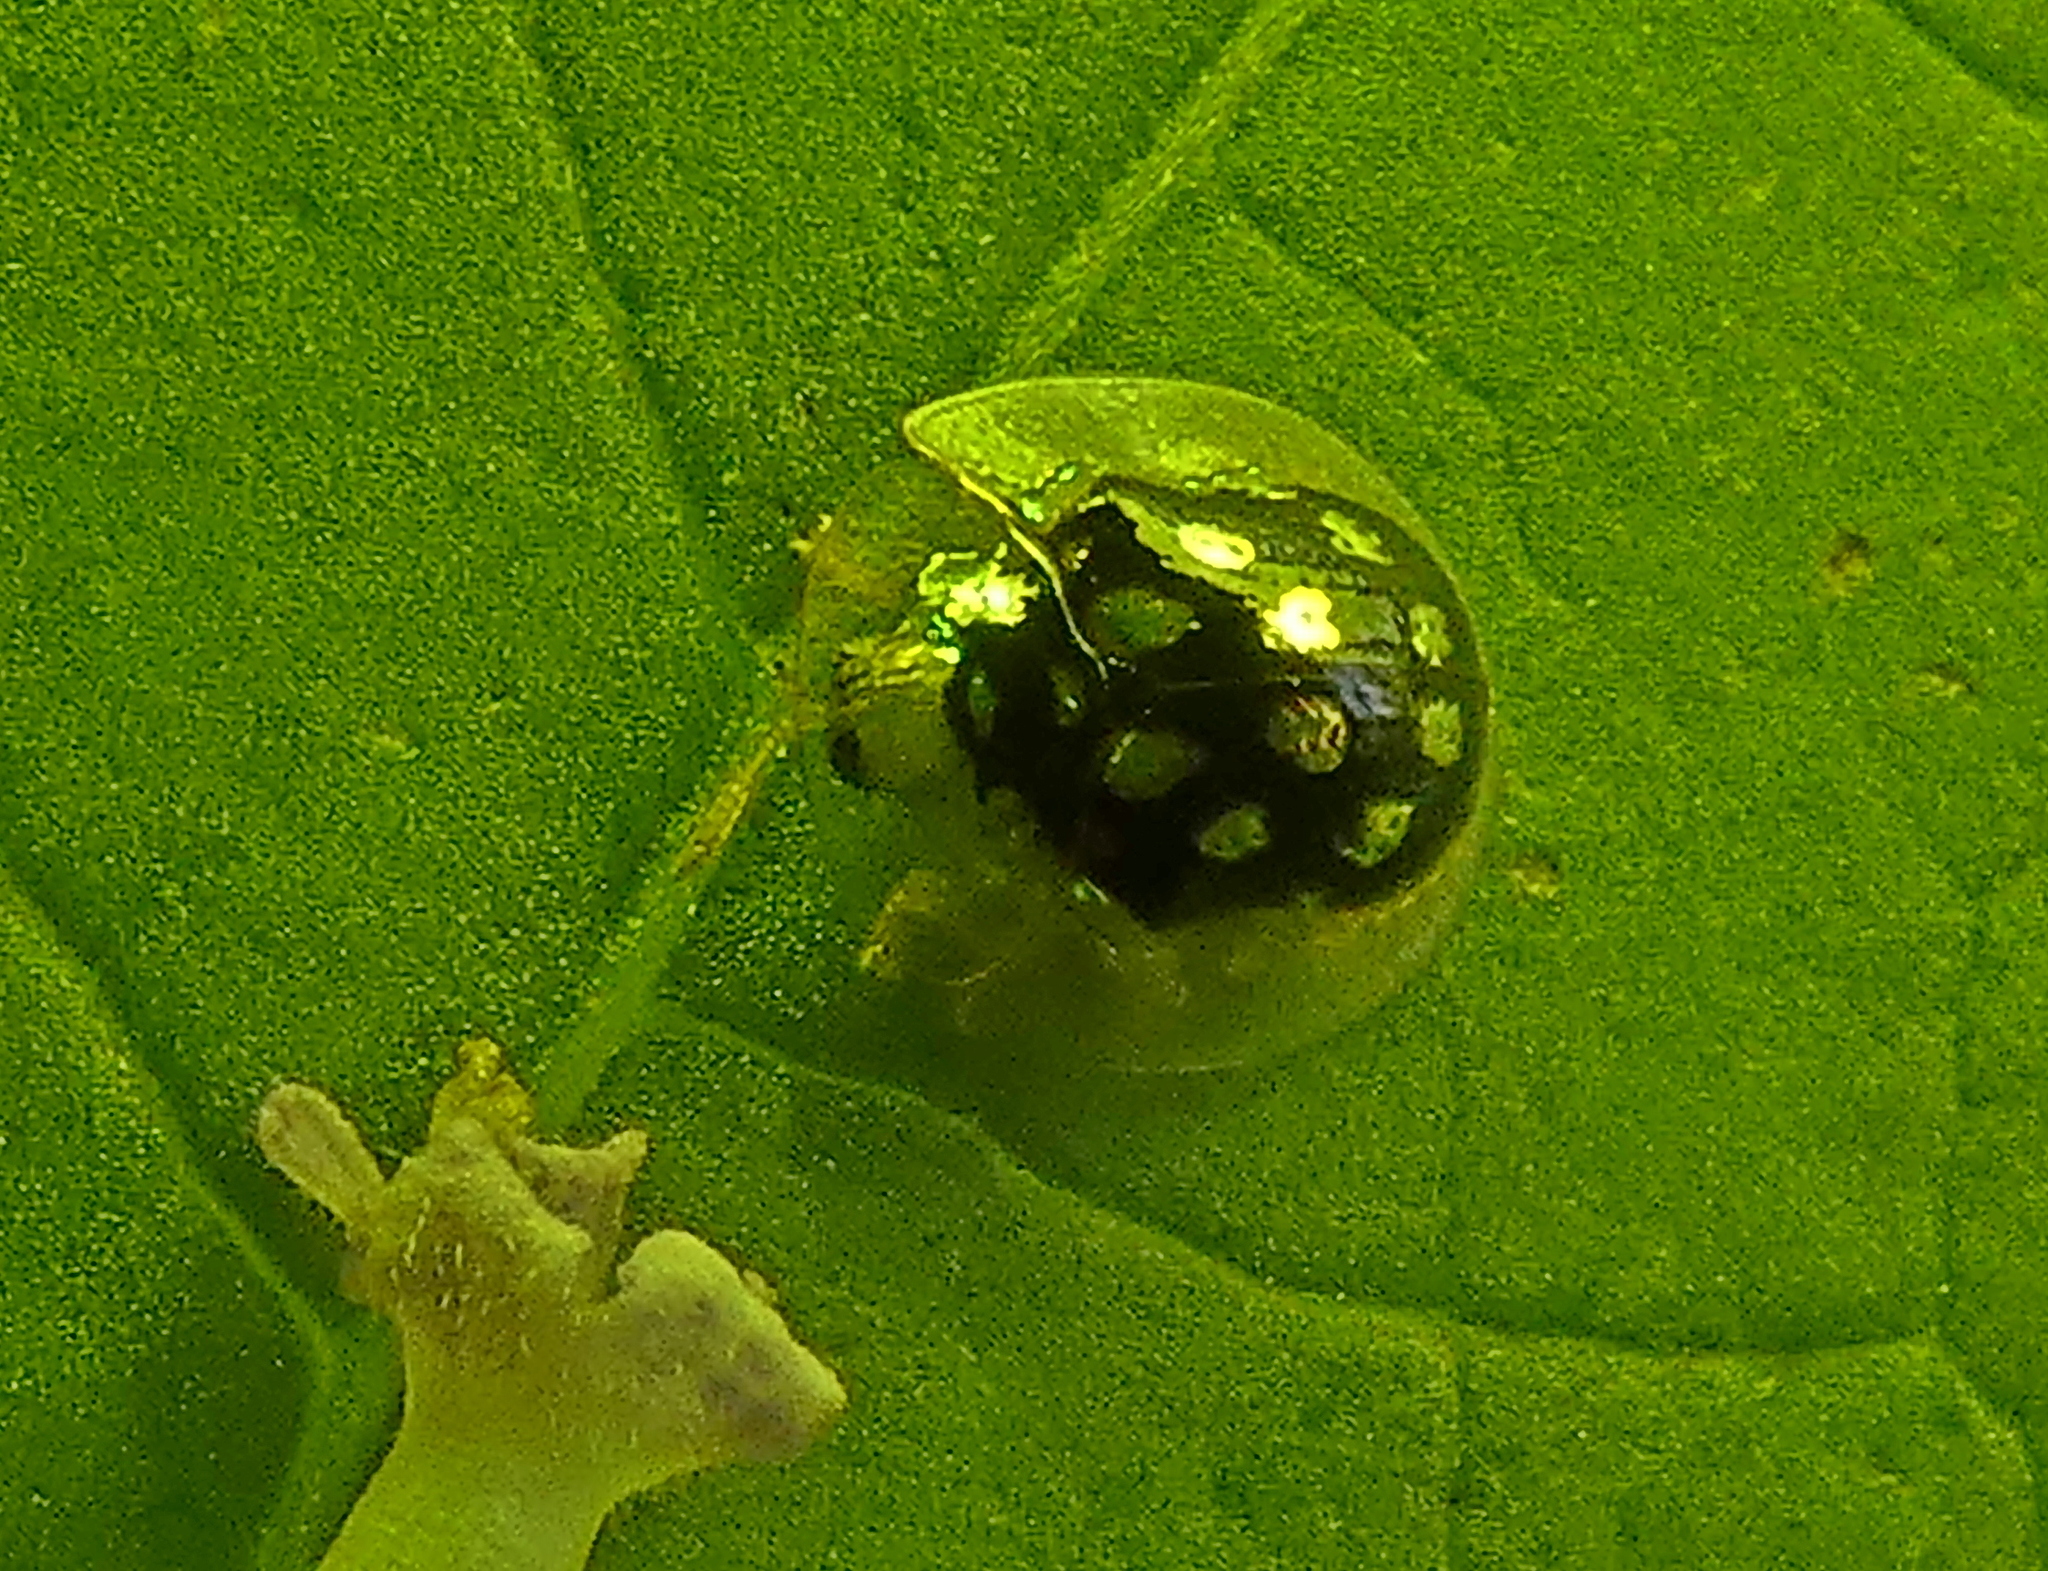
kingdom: Animalia
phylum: Arthropoda
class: Insecta
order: Coleoptera
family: Chrysomelidae
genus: Plagiometriona
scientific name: Plagiometriona microcera
